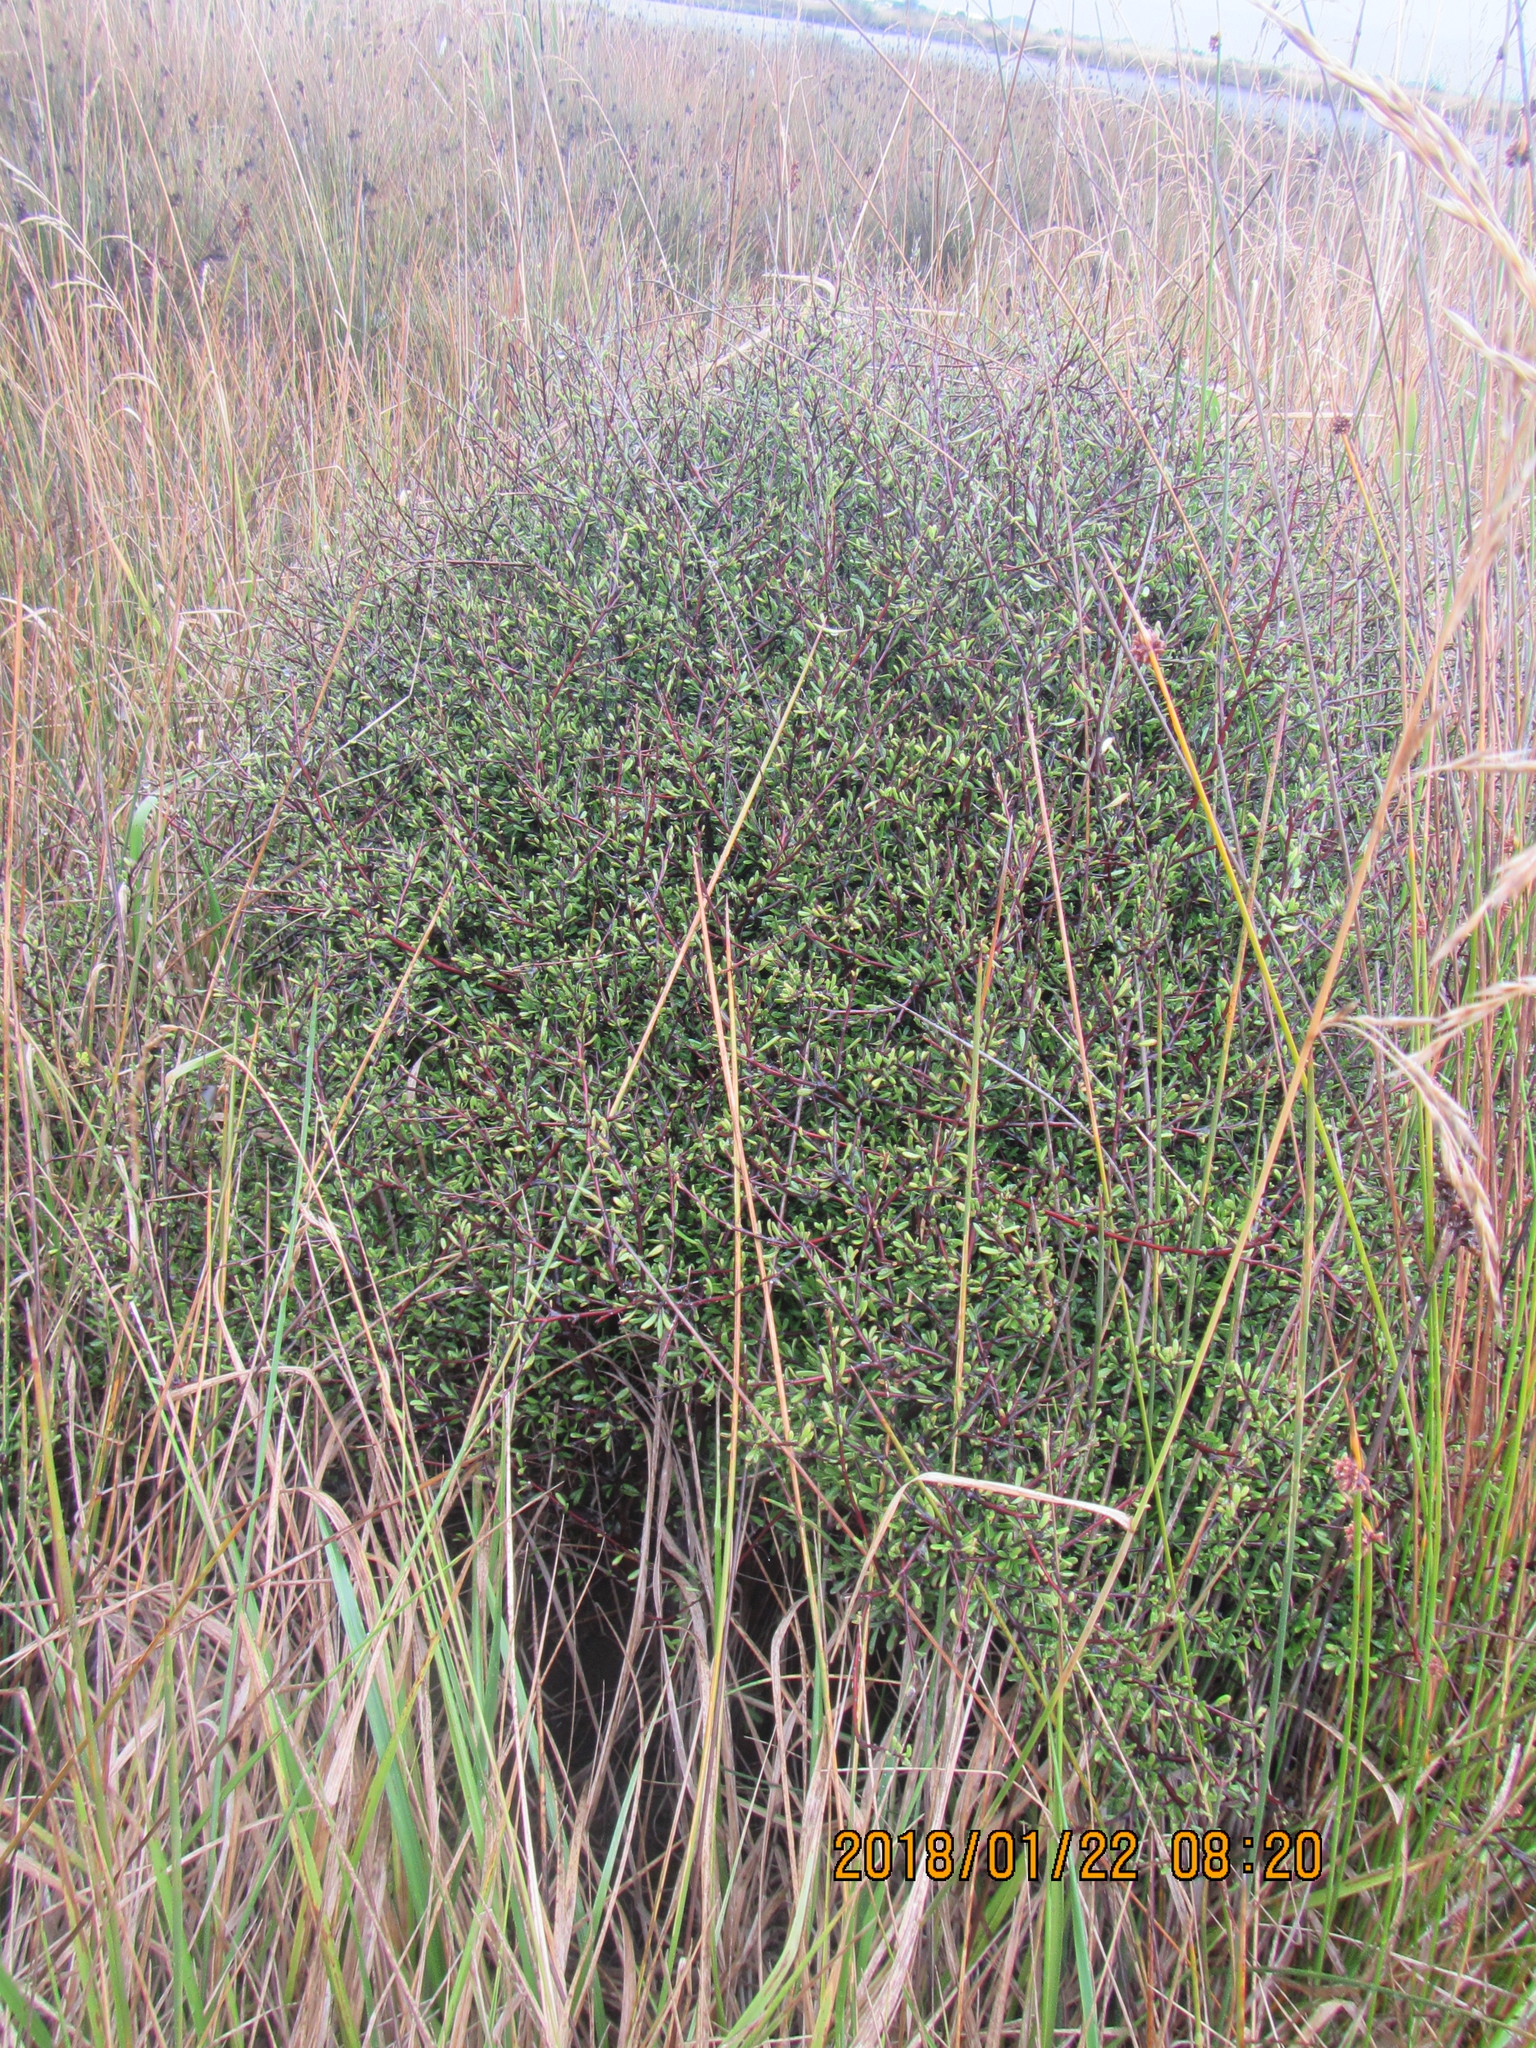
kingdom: Plantae
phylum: Tracheophyta
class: Magnoliopsida
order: Malvales
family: Malvaceae
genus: Plagianthus
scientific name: Plagianthus divaricatus
